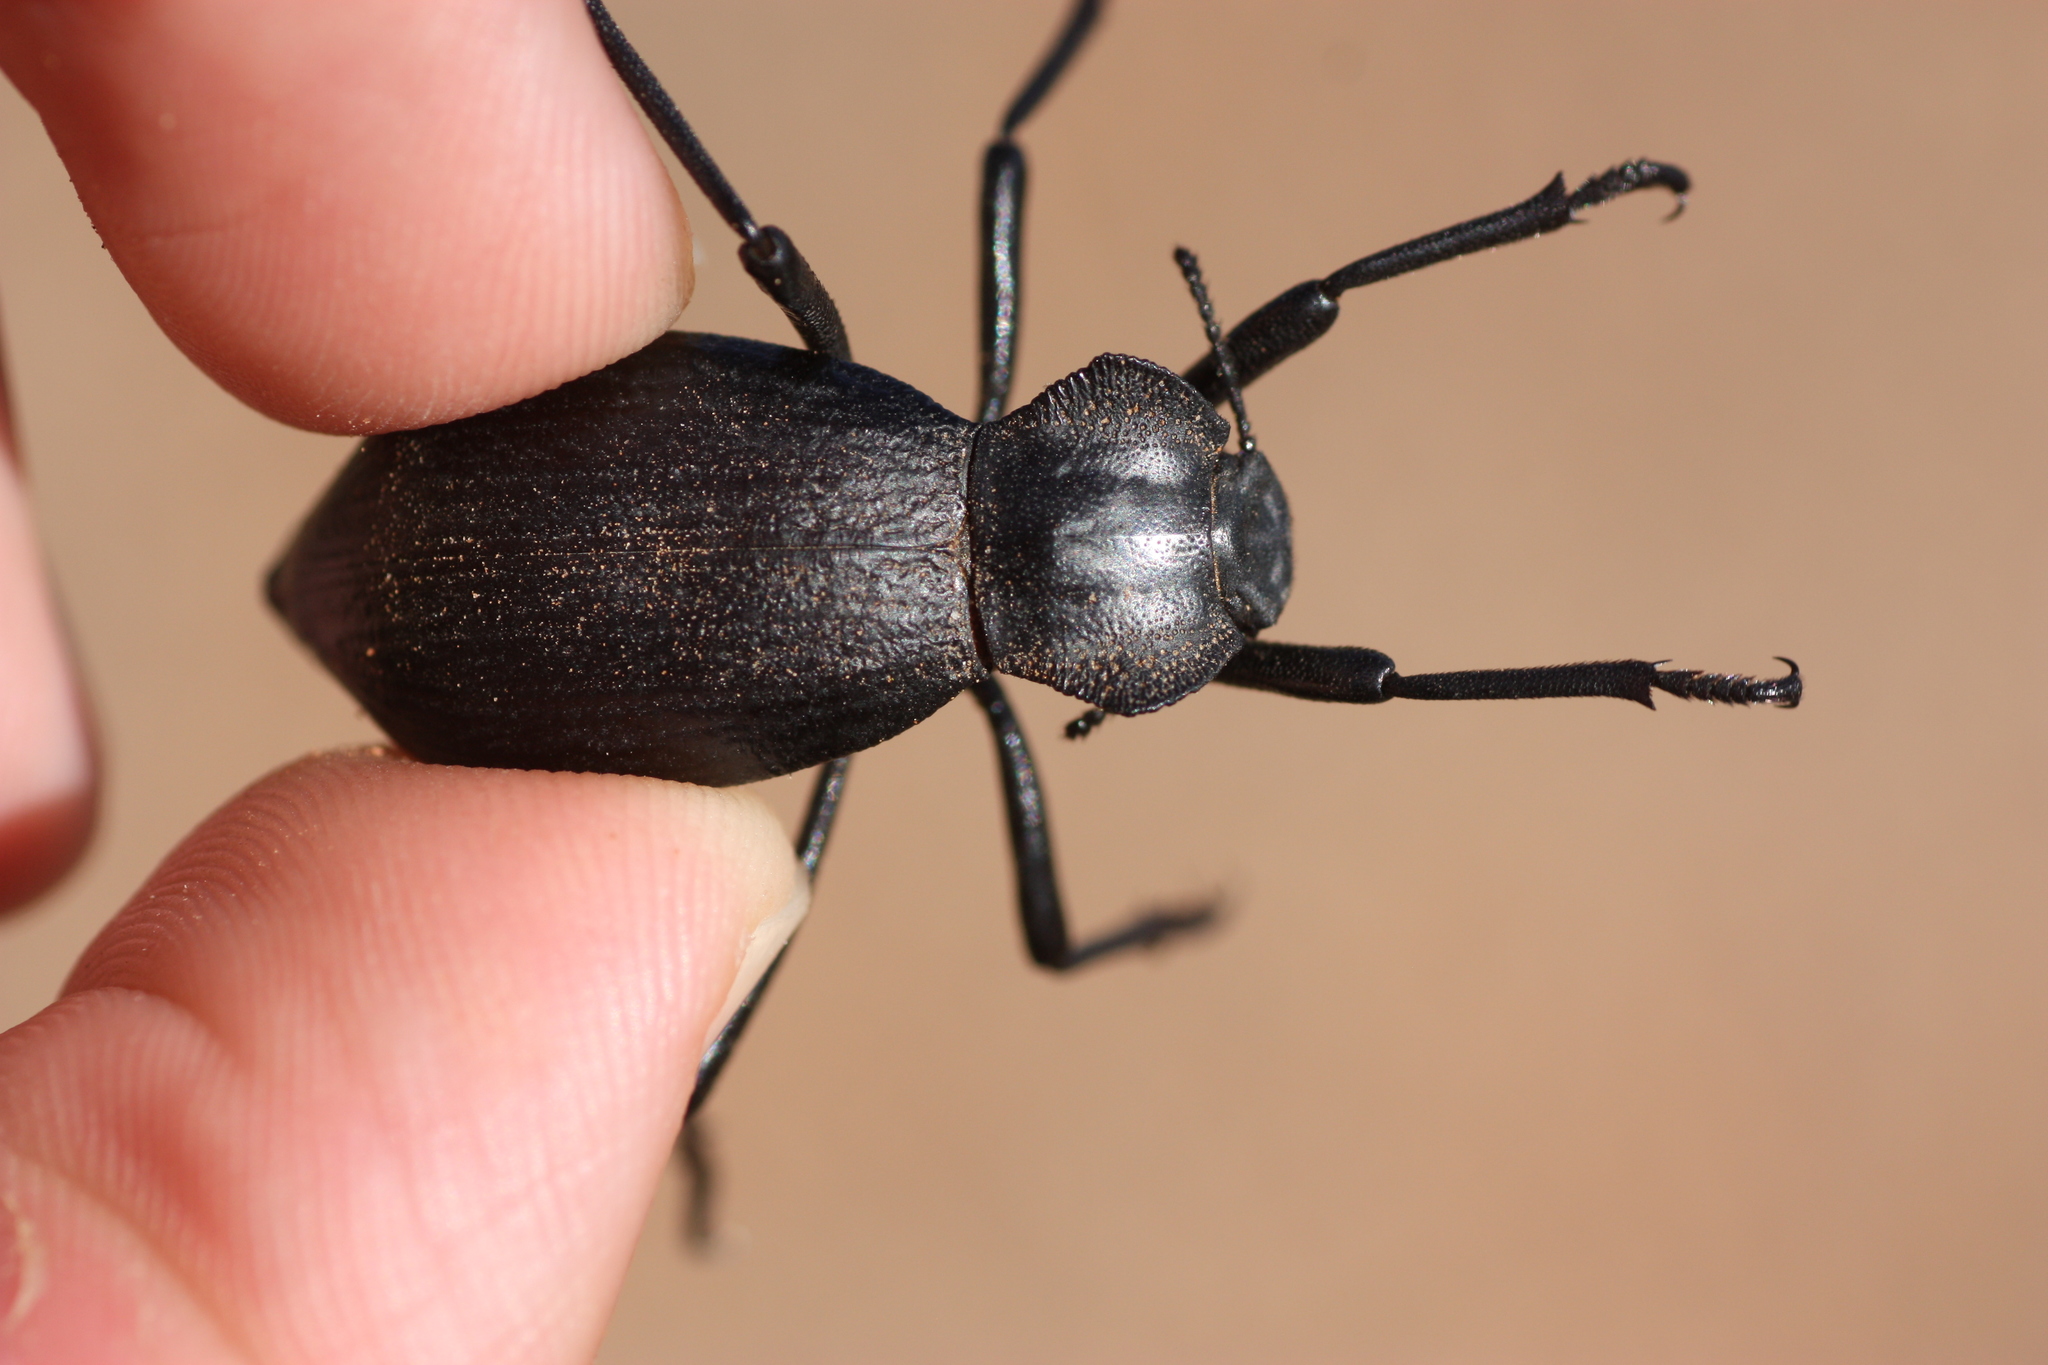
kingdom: Animalia
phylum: Arthropoda
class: Insecta
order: Coleoptera
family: Tenebrionidae
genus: Philolithus
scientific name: Philolithus elatus
